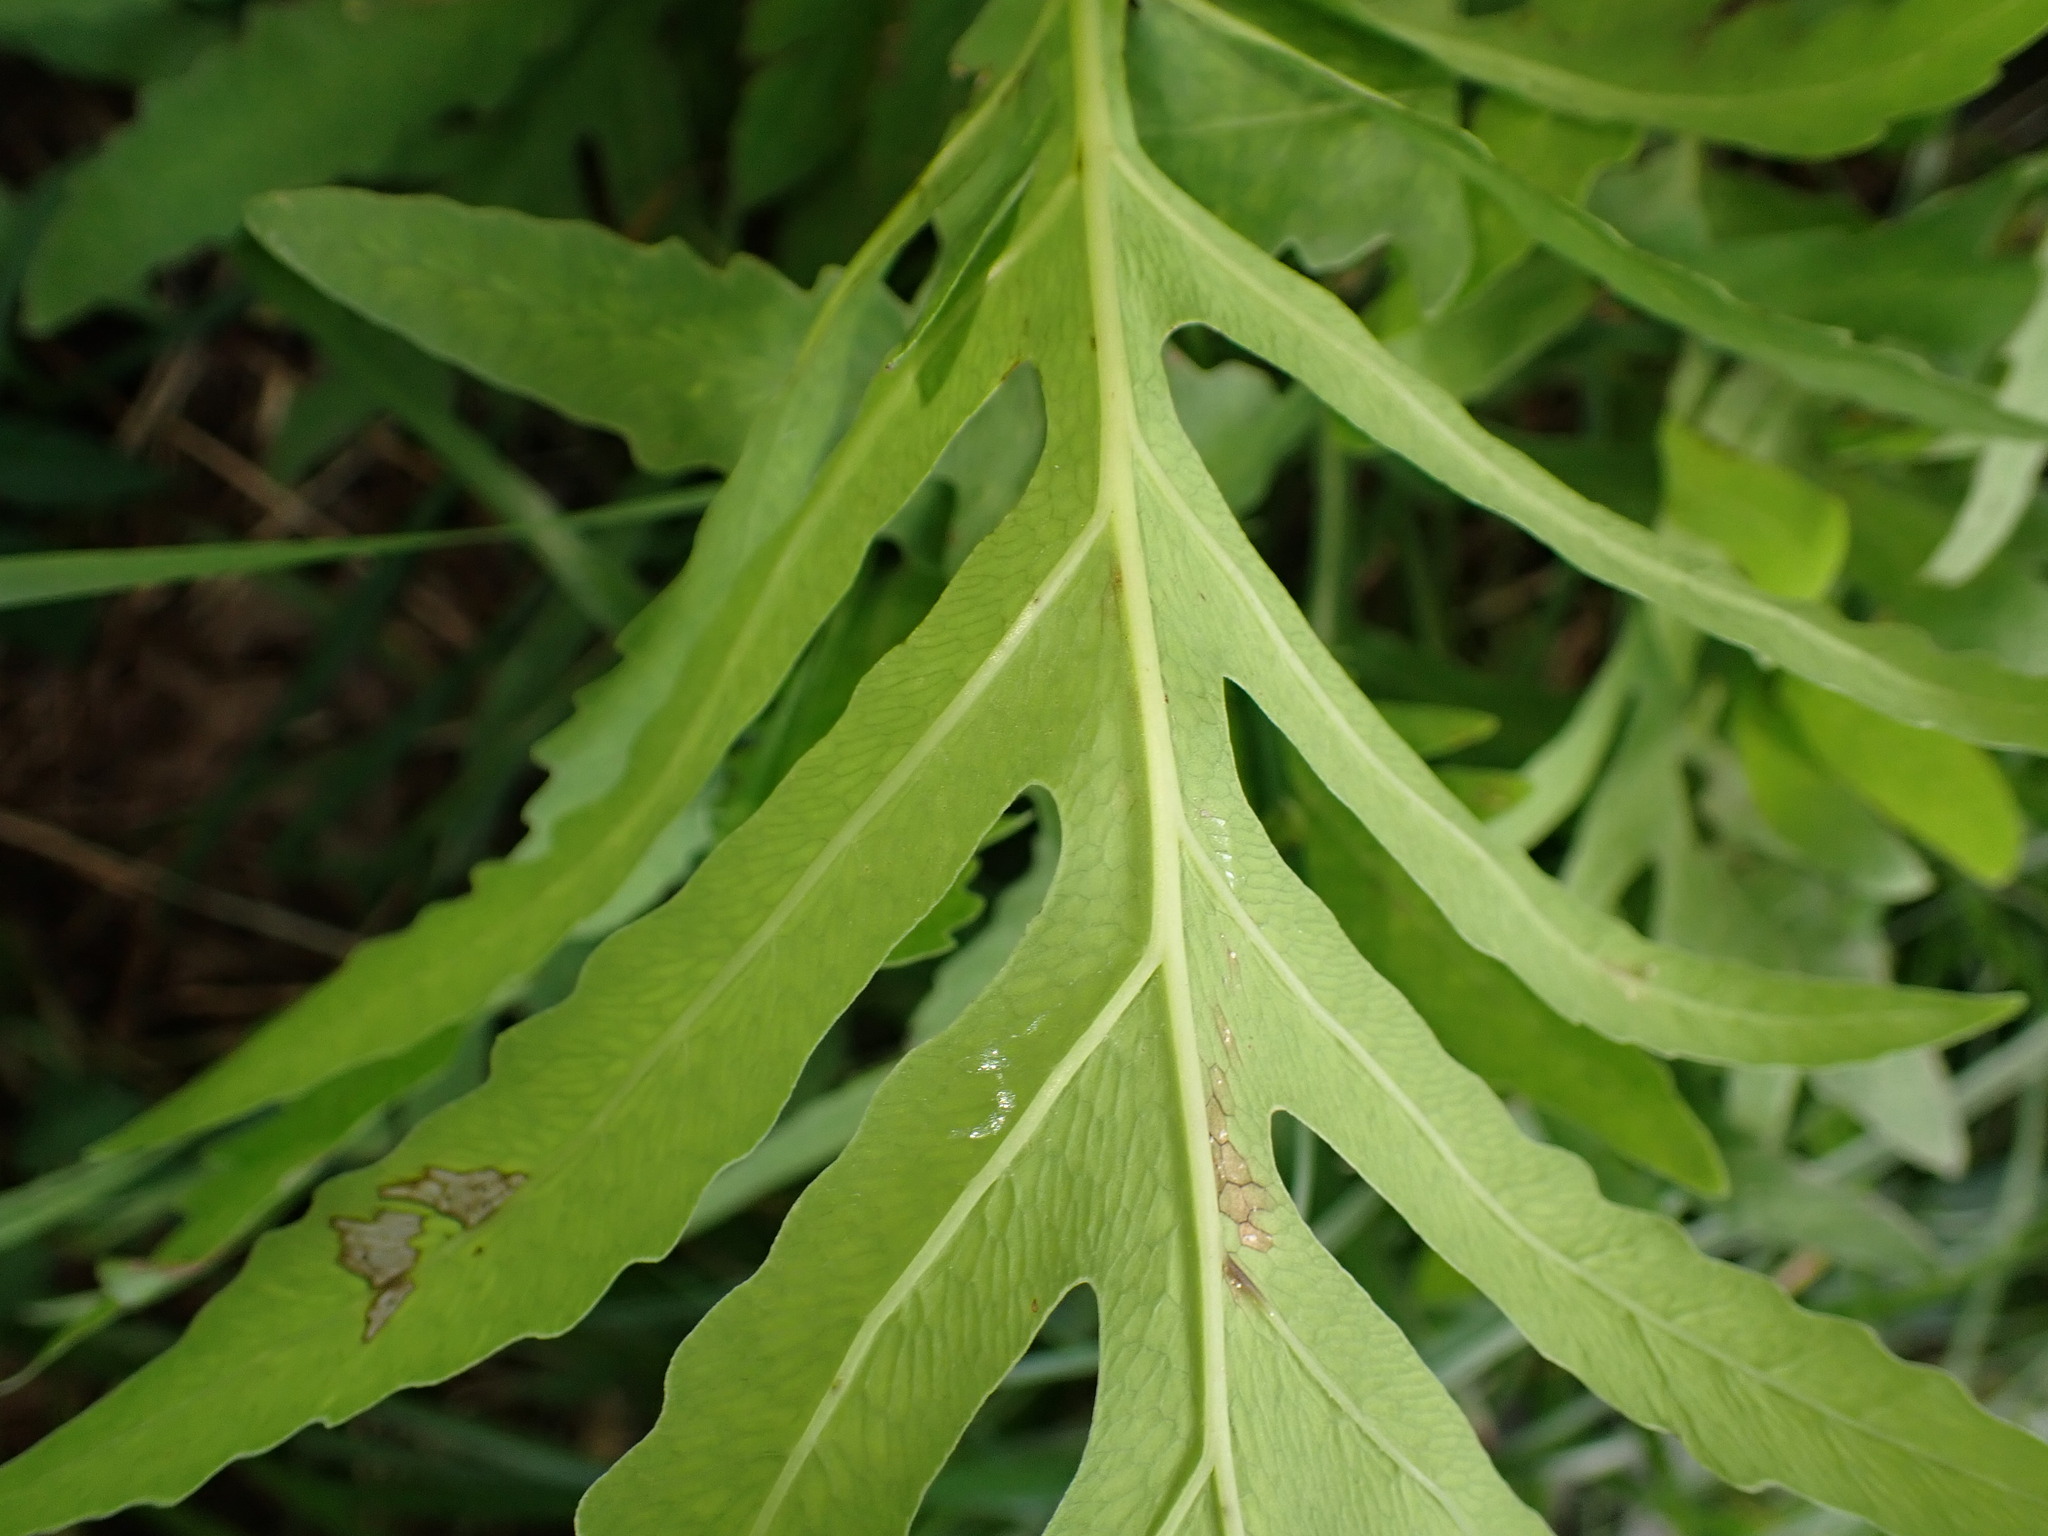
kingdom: Plantae
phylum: Tracheophyta
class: Polypodiopsida
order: Polypodiales
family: Onocleaceae
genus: Onoclea
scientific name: Onoclea sensibilis
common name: Sensitive fern
